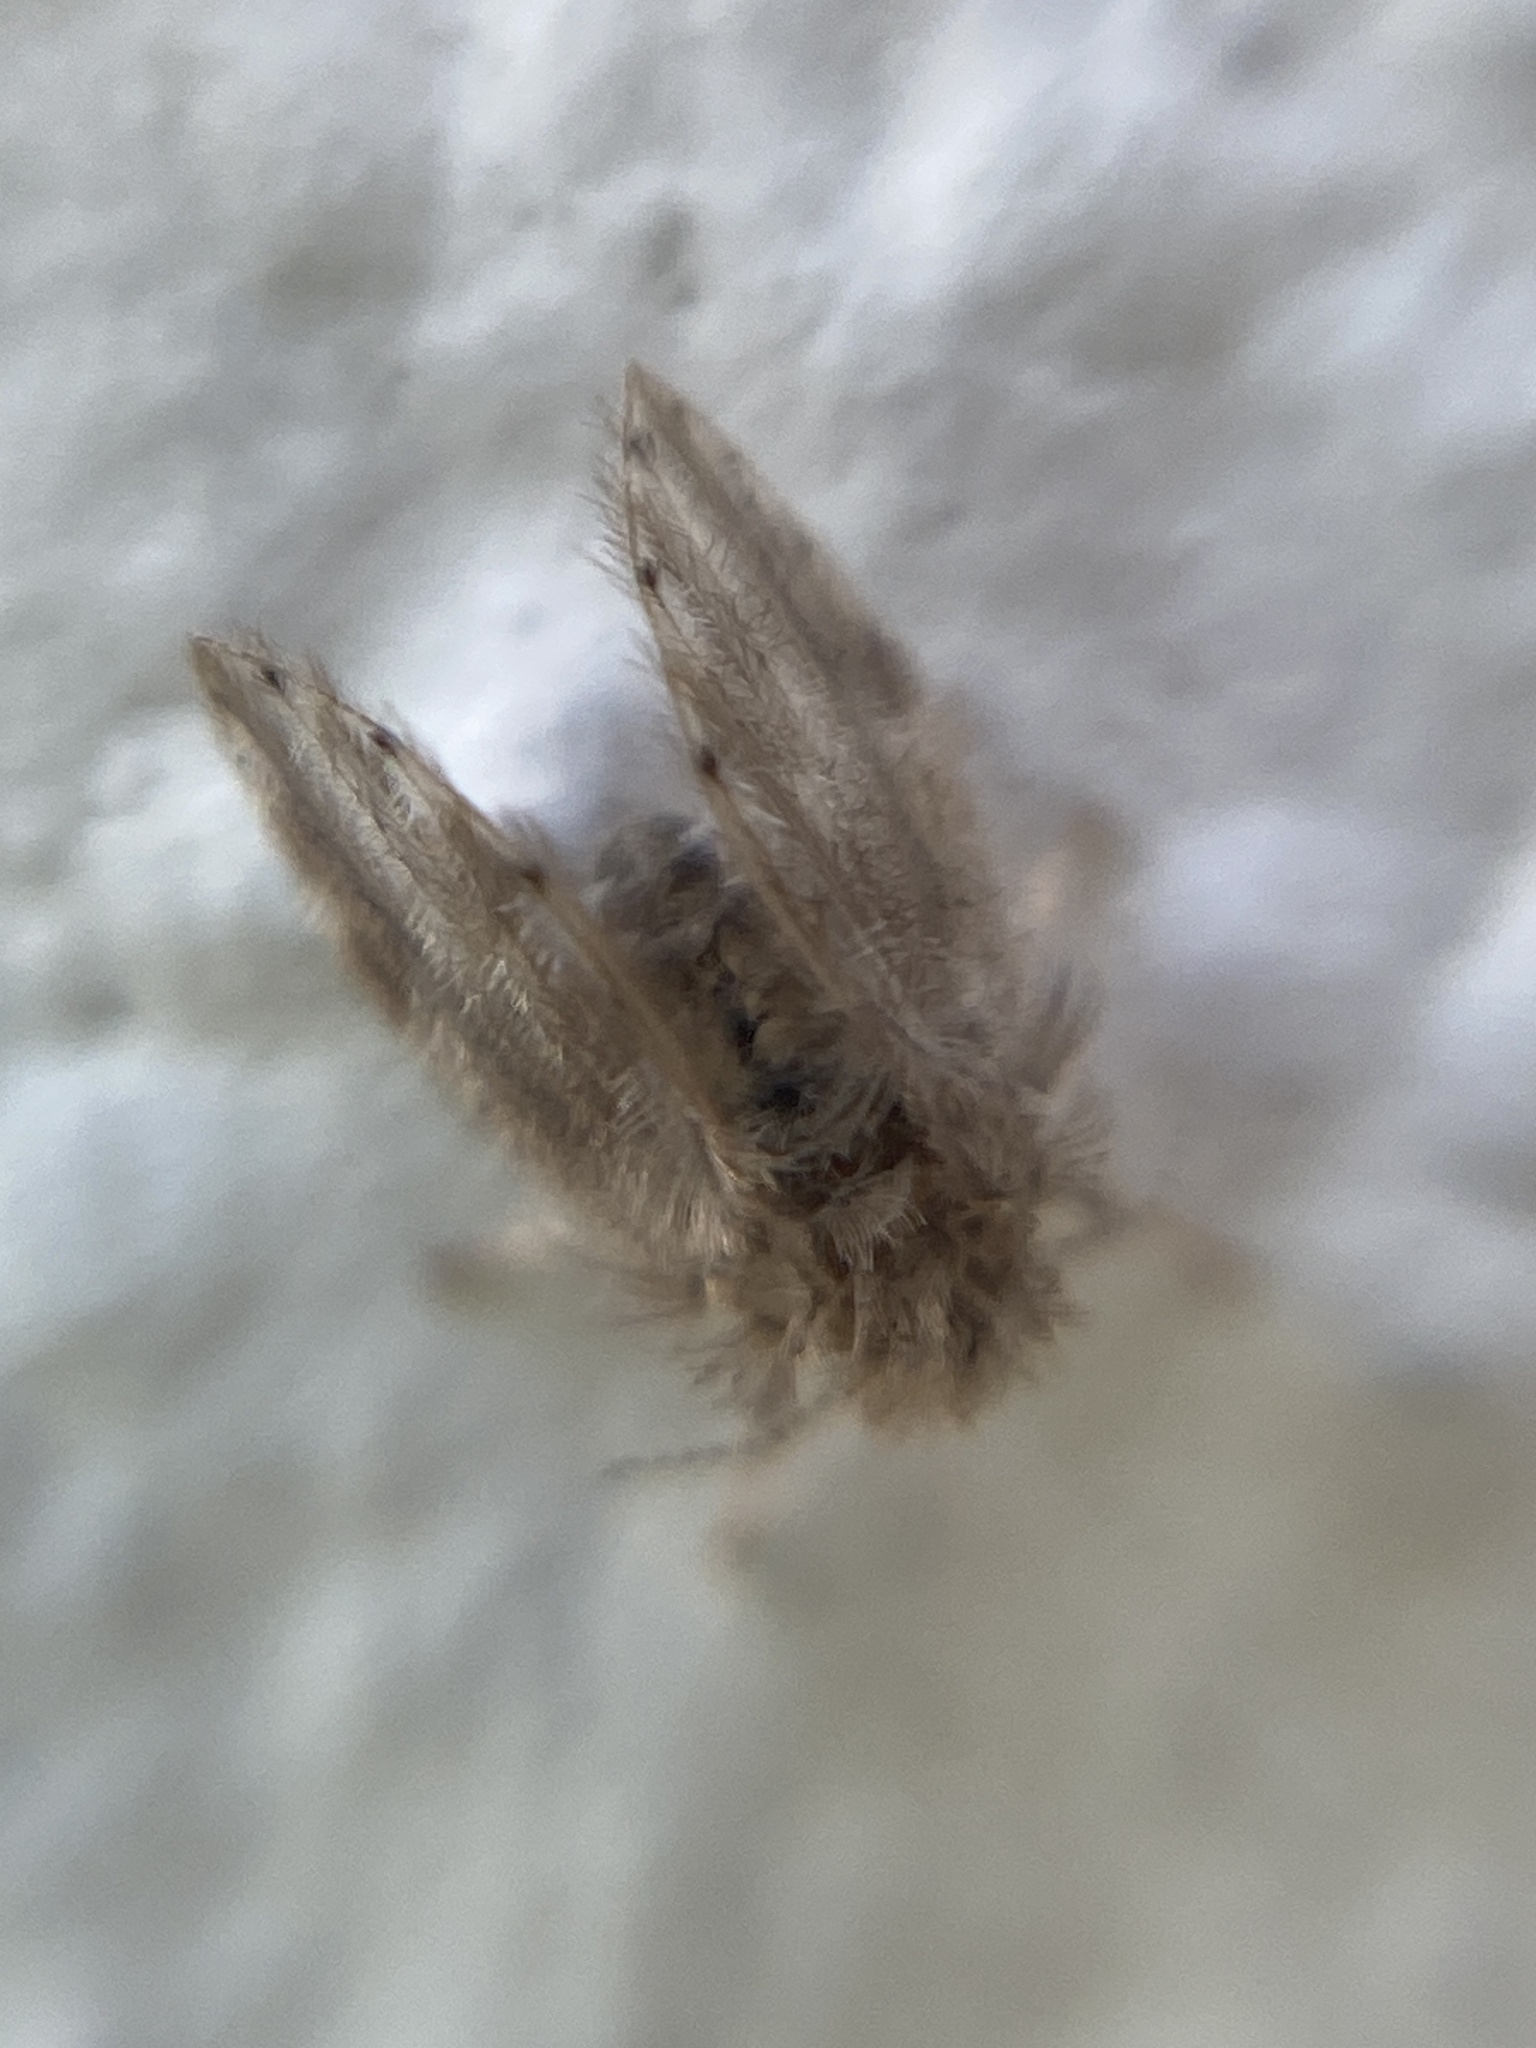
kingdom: Animalia
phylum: Arthropoda
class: Insecta
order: Diptera
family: Psychodidae
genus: Psychoda
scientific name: Psychoda alternata
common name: Moth fly
